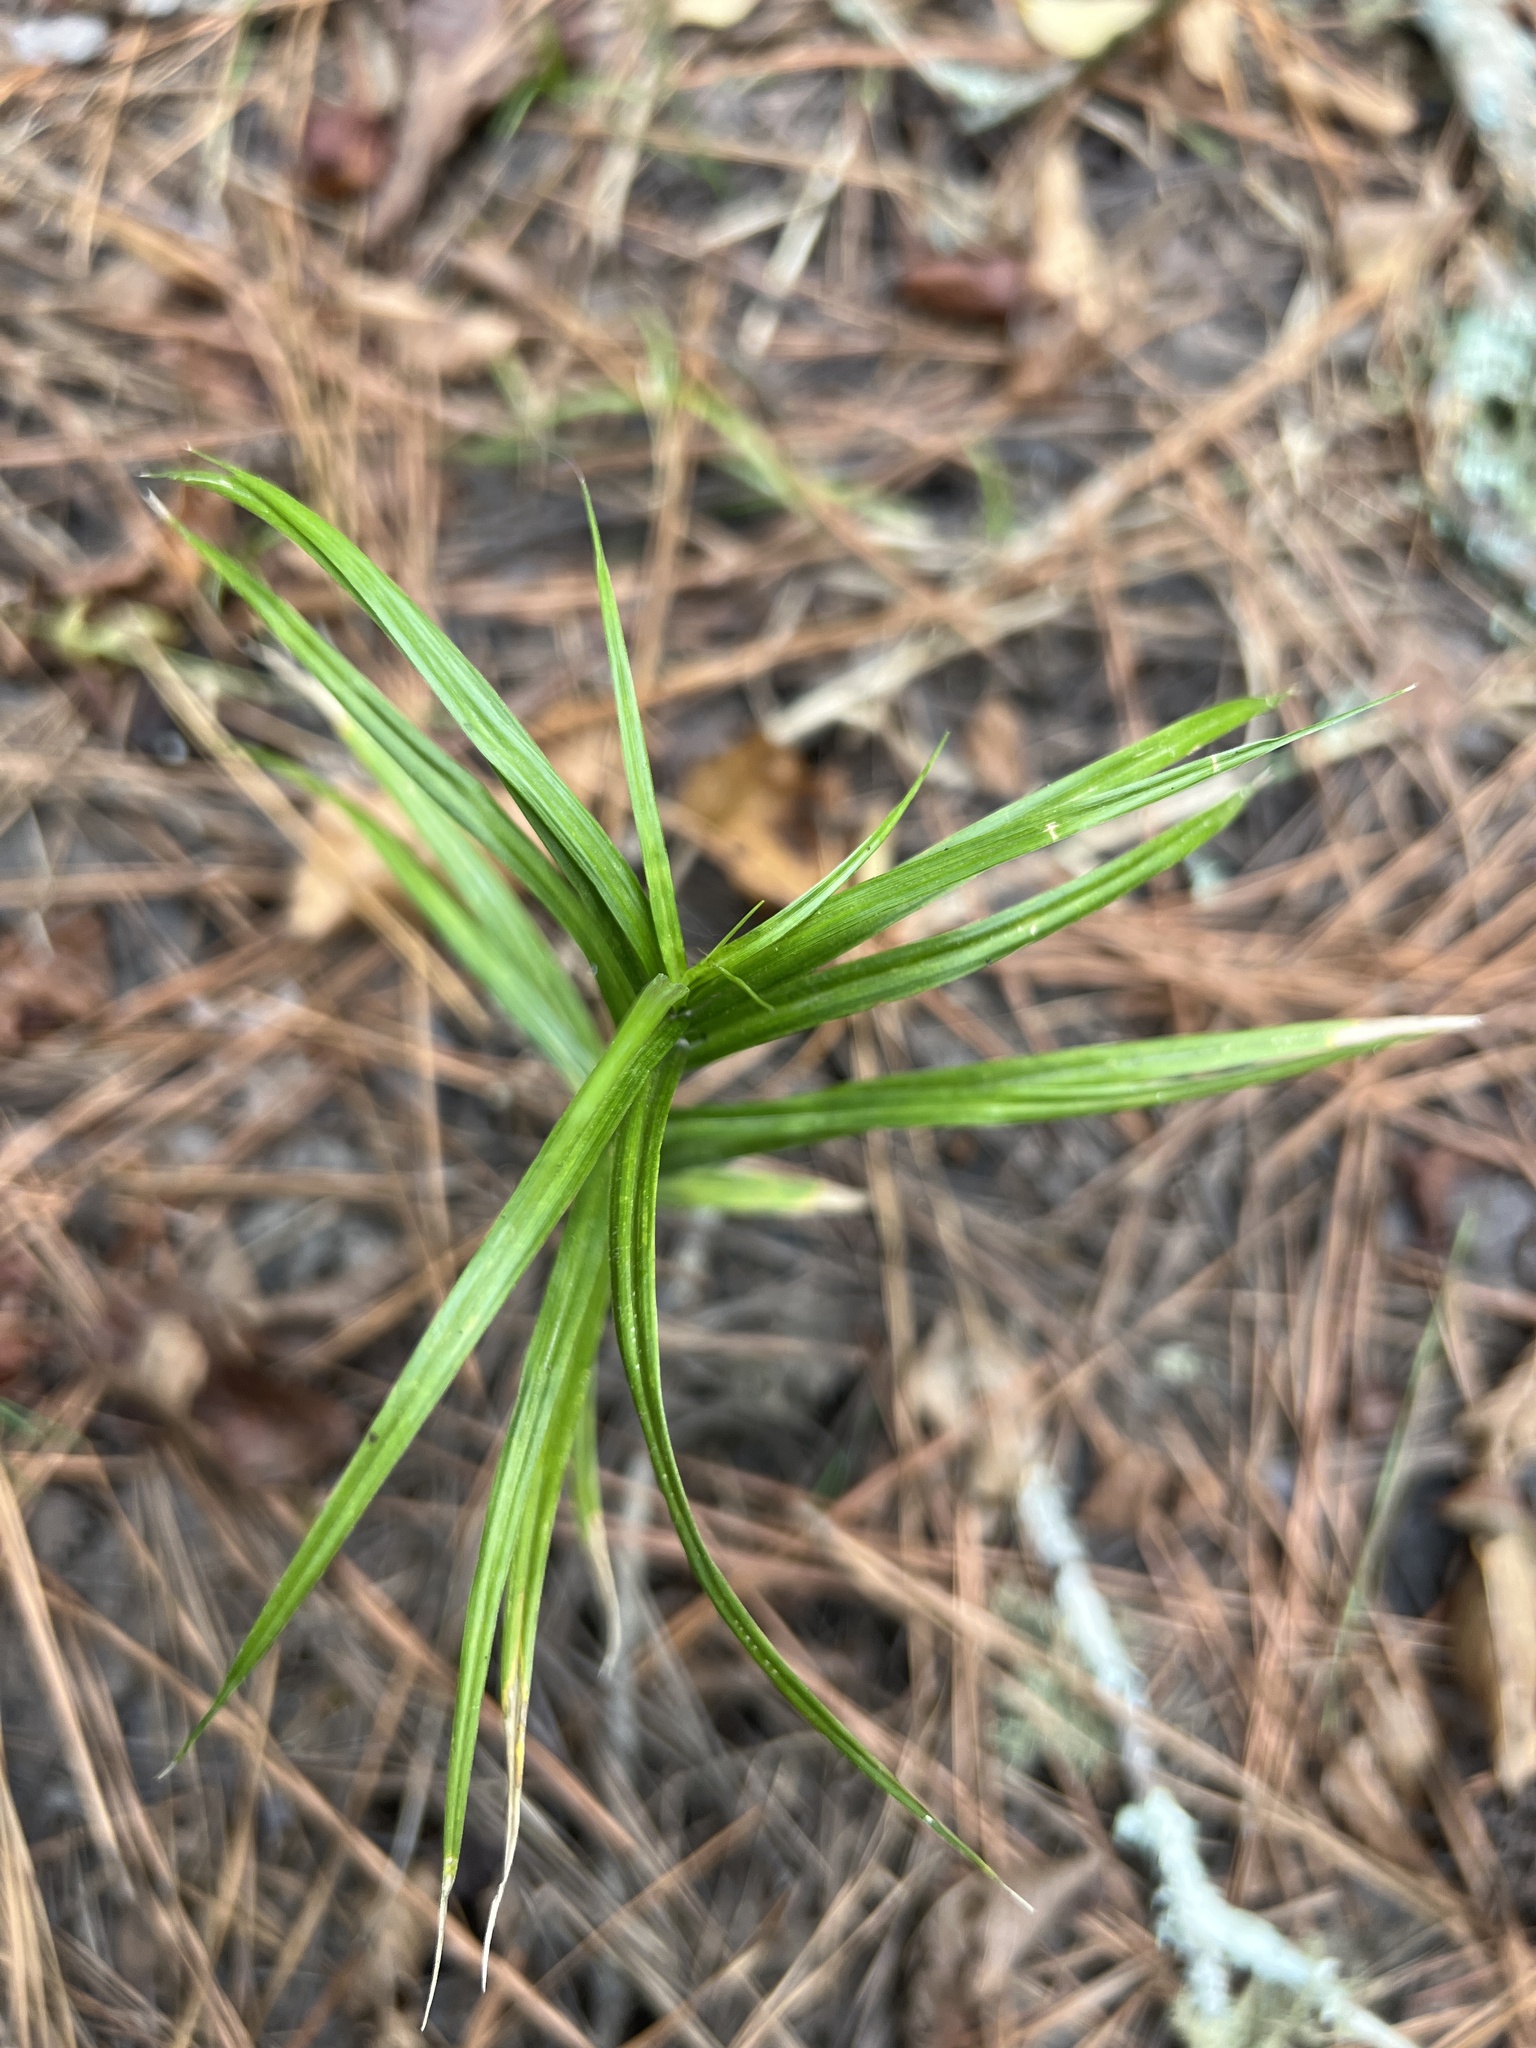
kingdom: Plantae
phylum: Tracheophyta
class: Liliopsida
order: Poales
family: Cyperaceae
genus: Dulichium
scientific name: Dulichium arundinaceum
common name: Three-way sedge
